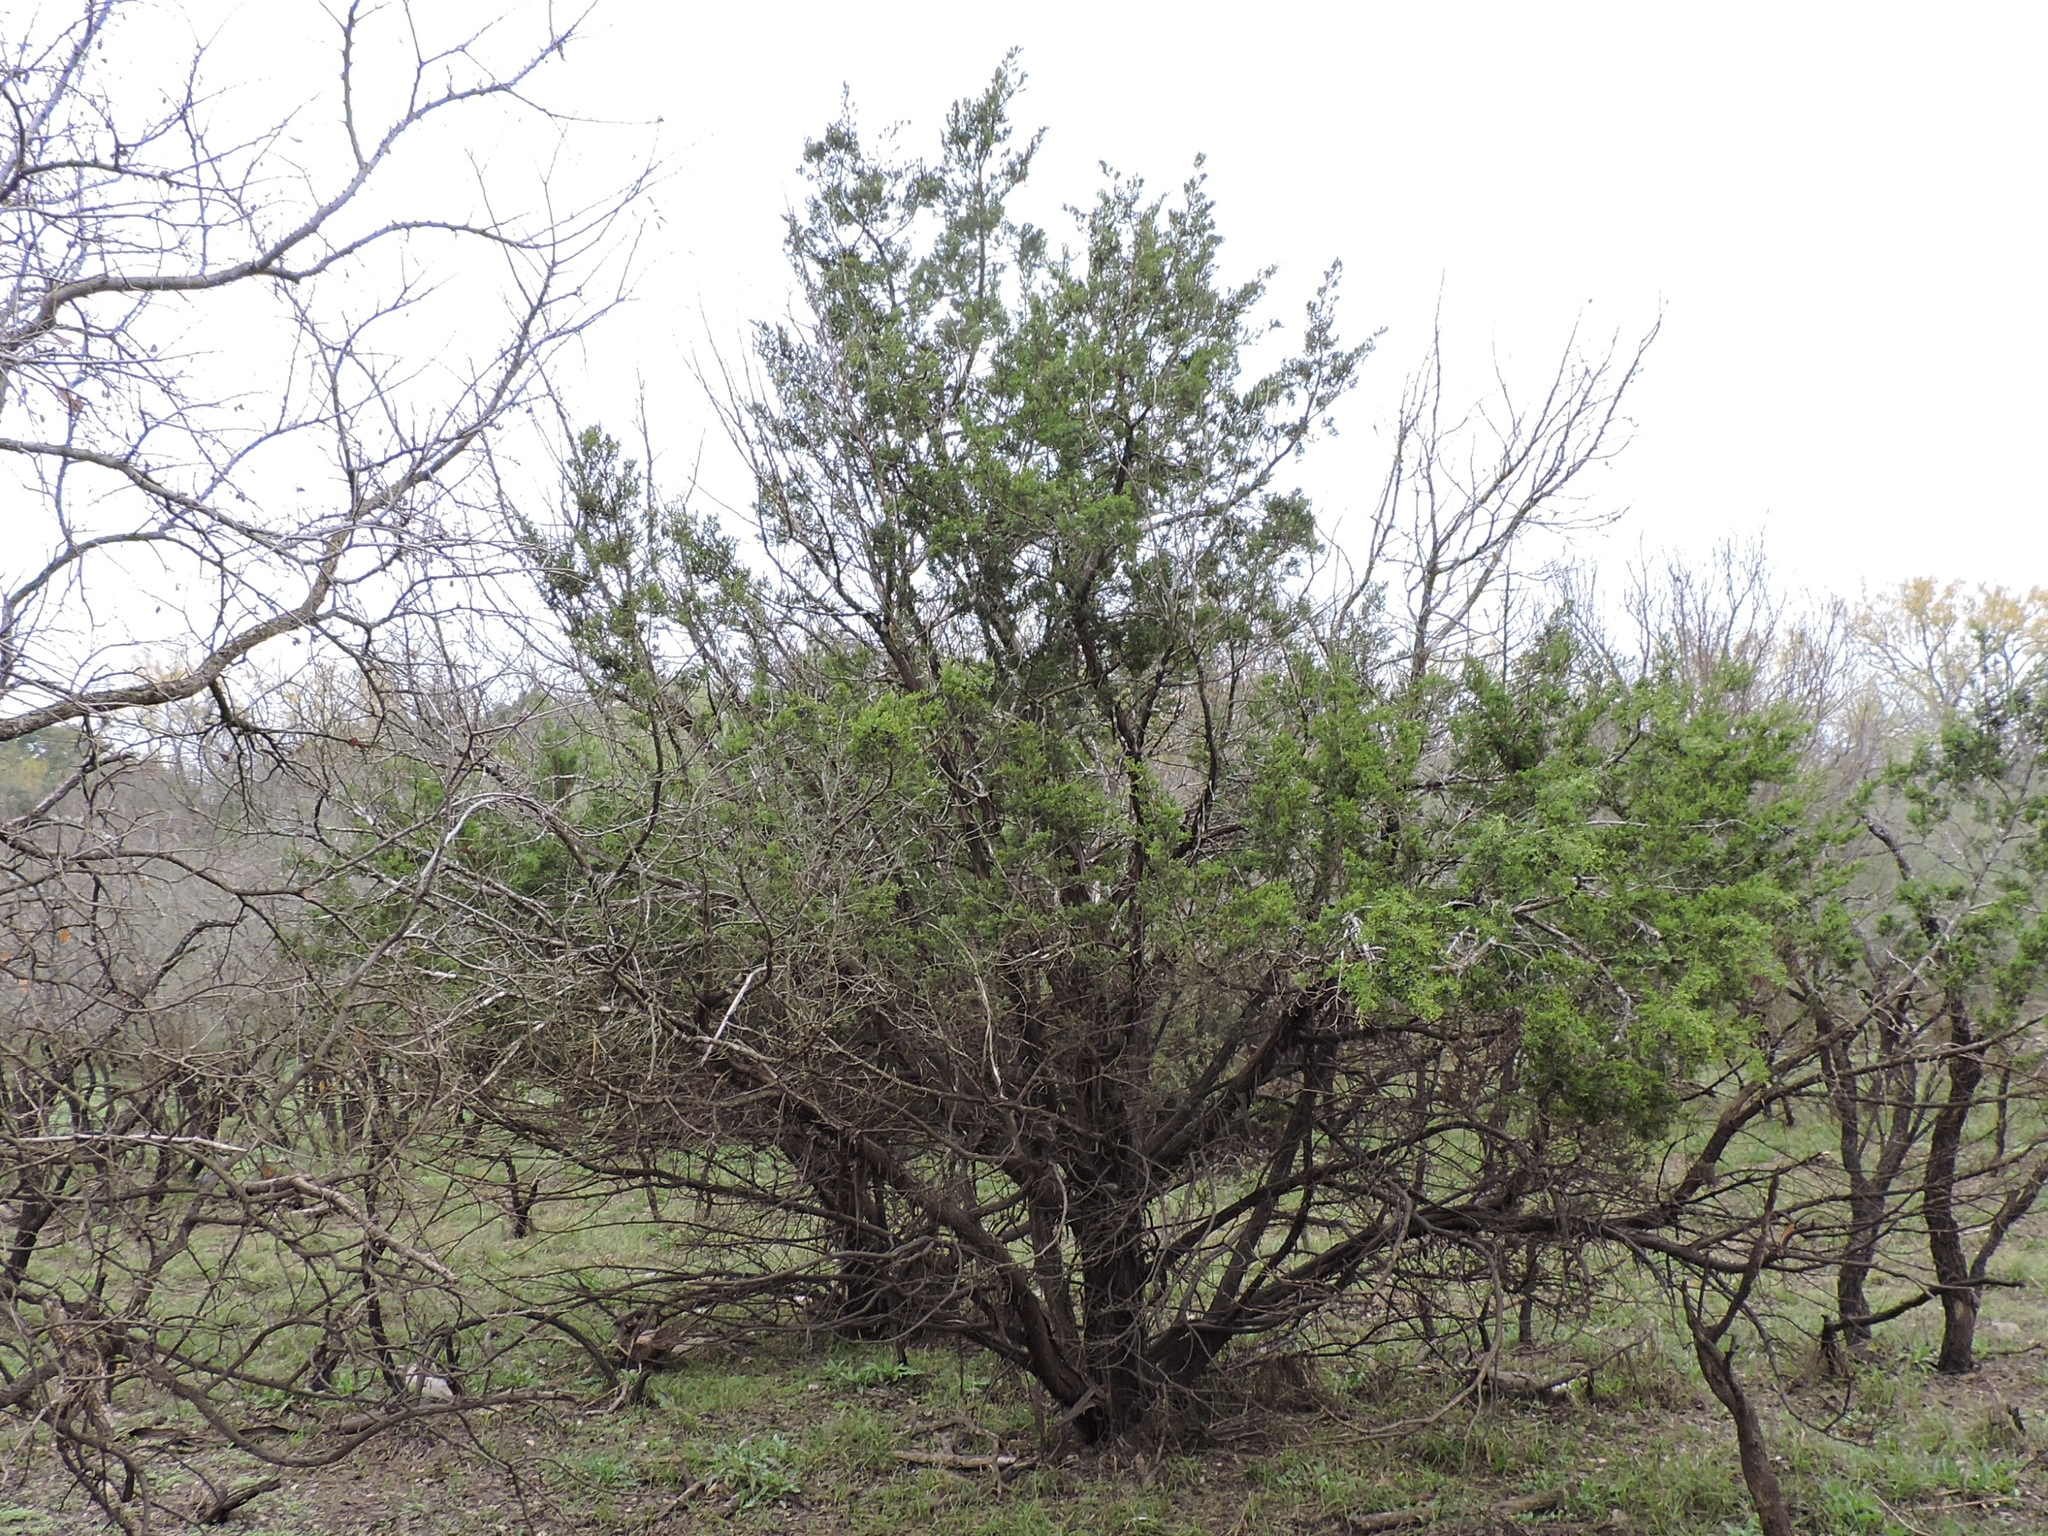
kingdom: Plantae
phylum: Tracheophyta
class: Pinopsida
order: Pinales
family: Cupressaceae
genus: Juniperus
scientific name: Juniperus ashei
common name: Mexican juniper
